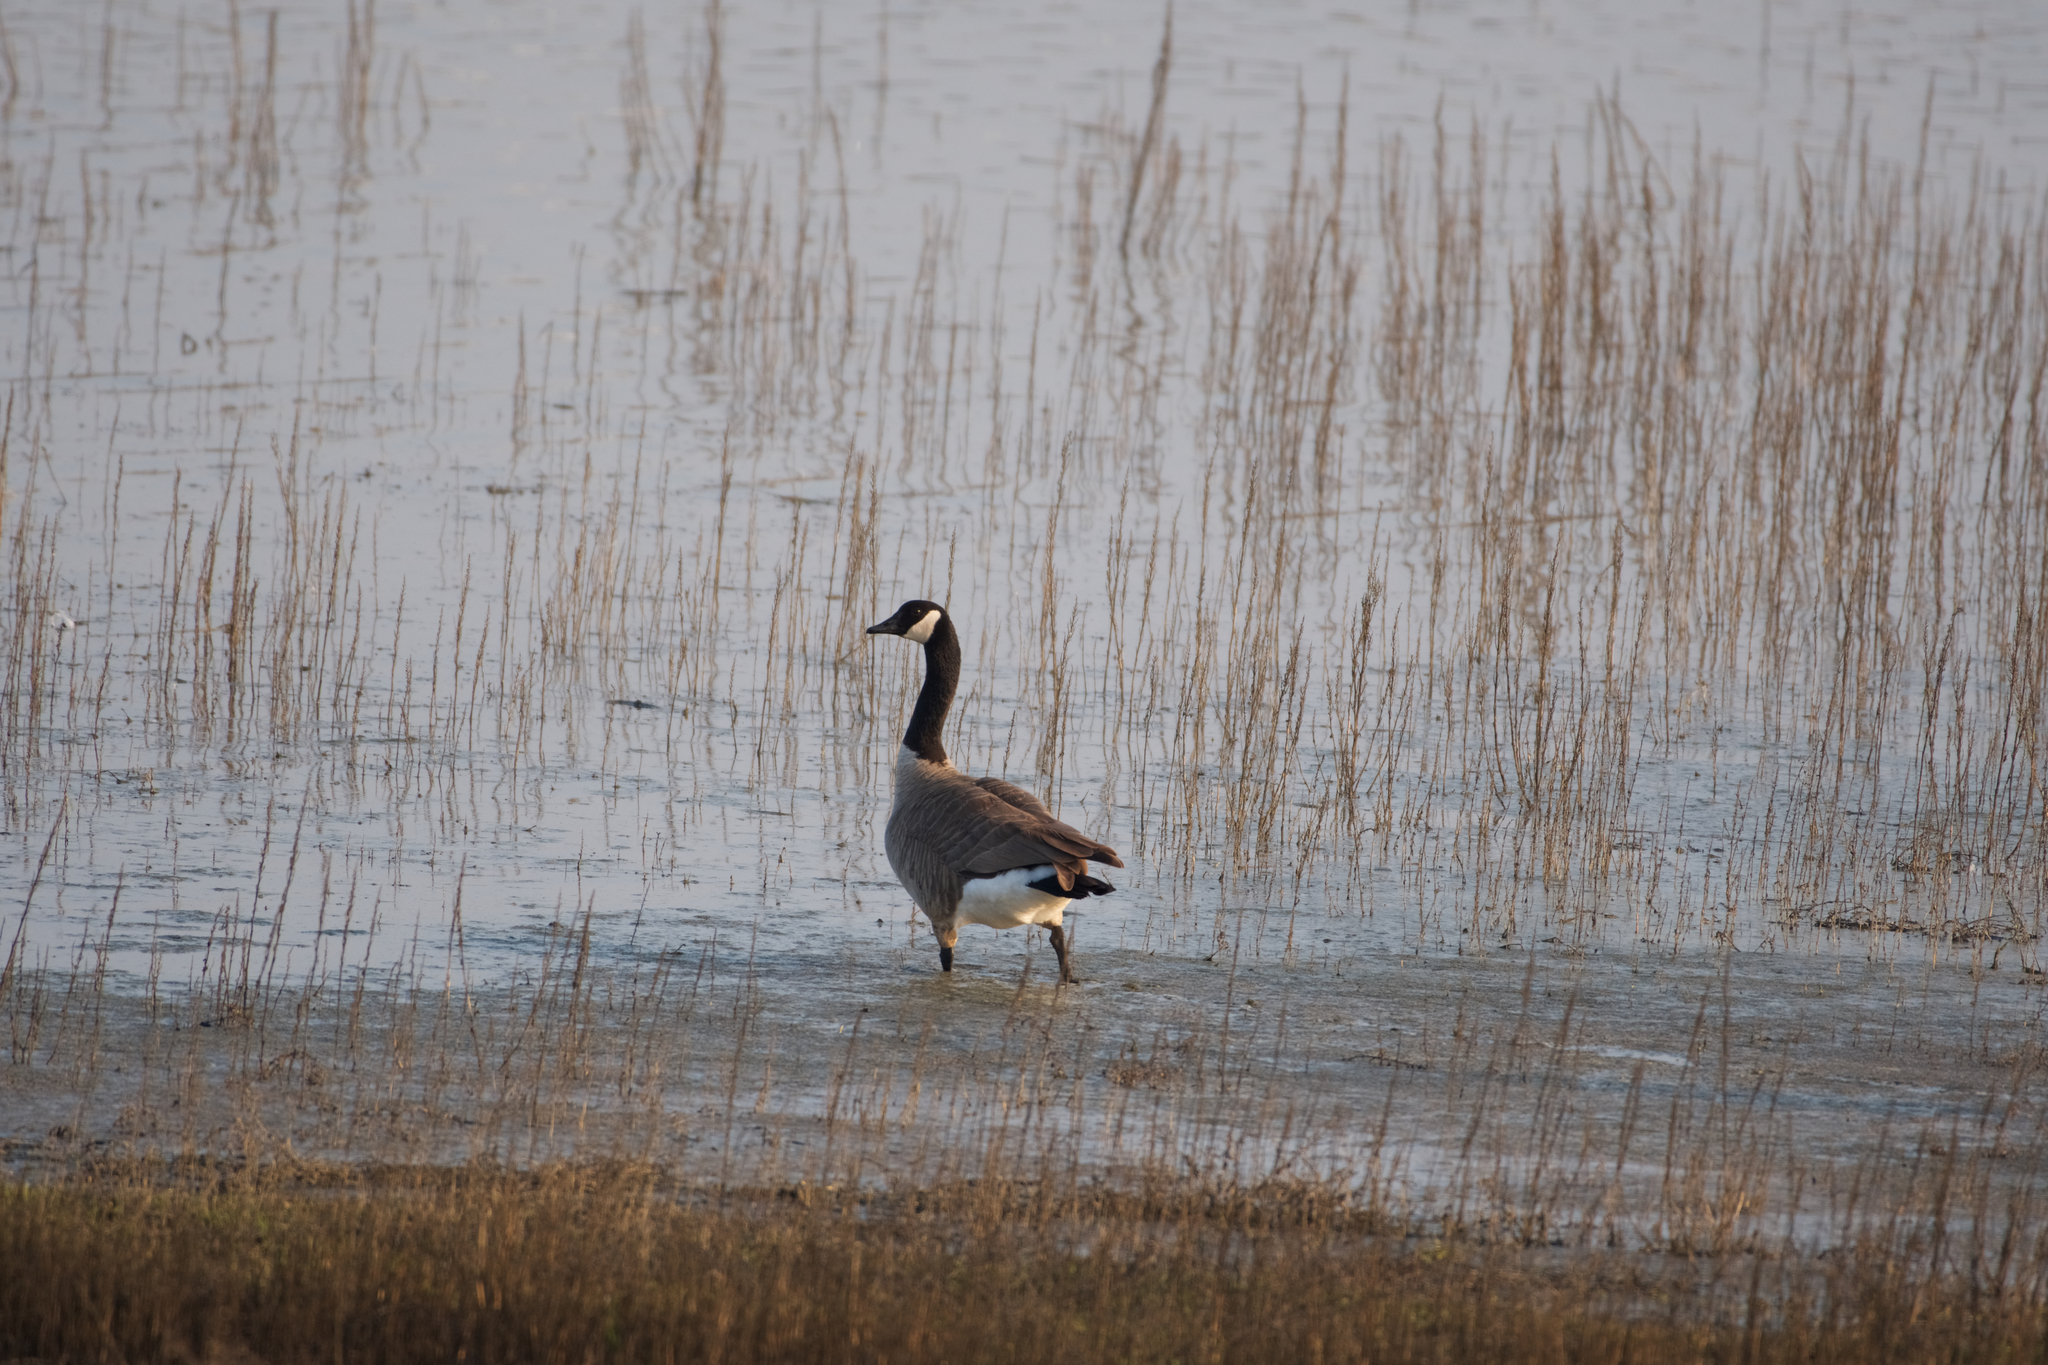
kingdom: Animalia
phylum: Chordata
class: Aves
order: Anseriformes
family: Anatidae
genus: Branta
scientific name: Branta canadensis
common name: Canada goose
